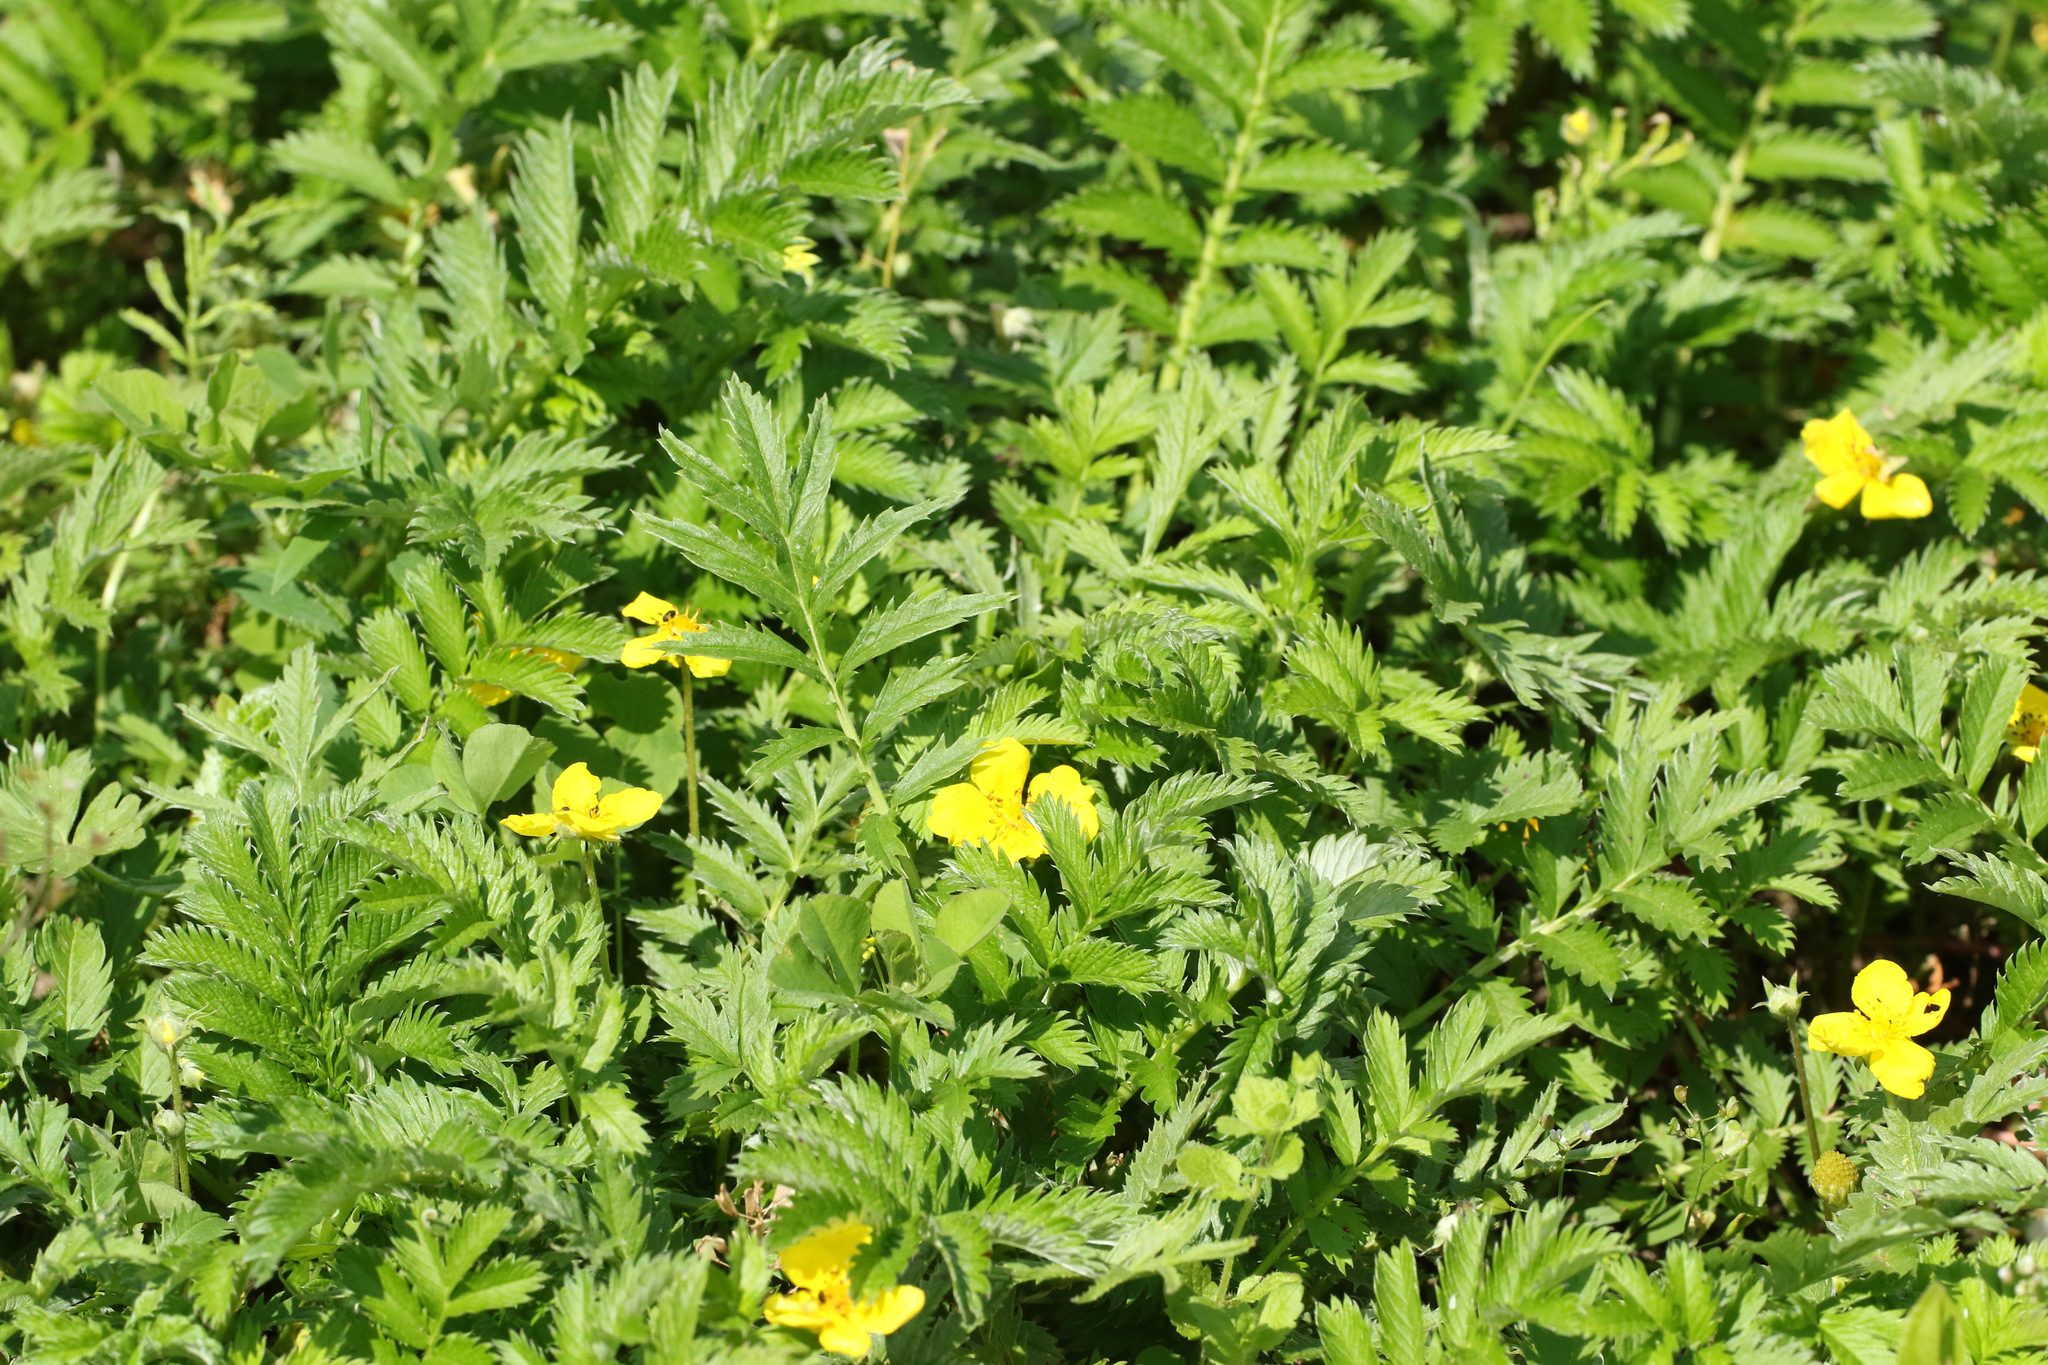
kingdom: Plantae
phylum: Tracheophyta
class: Magnoliopsida
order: Rosales
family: Rosaceae
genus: Argentina
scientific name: Argentina anserina
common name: Common silverweed
